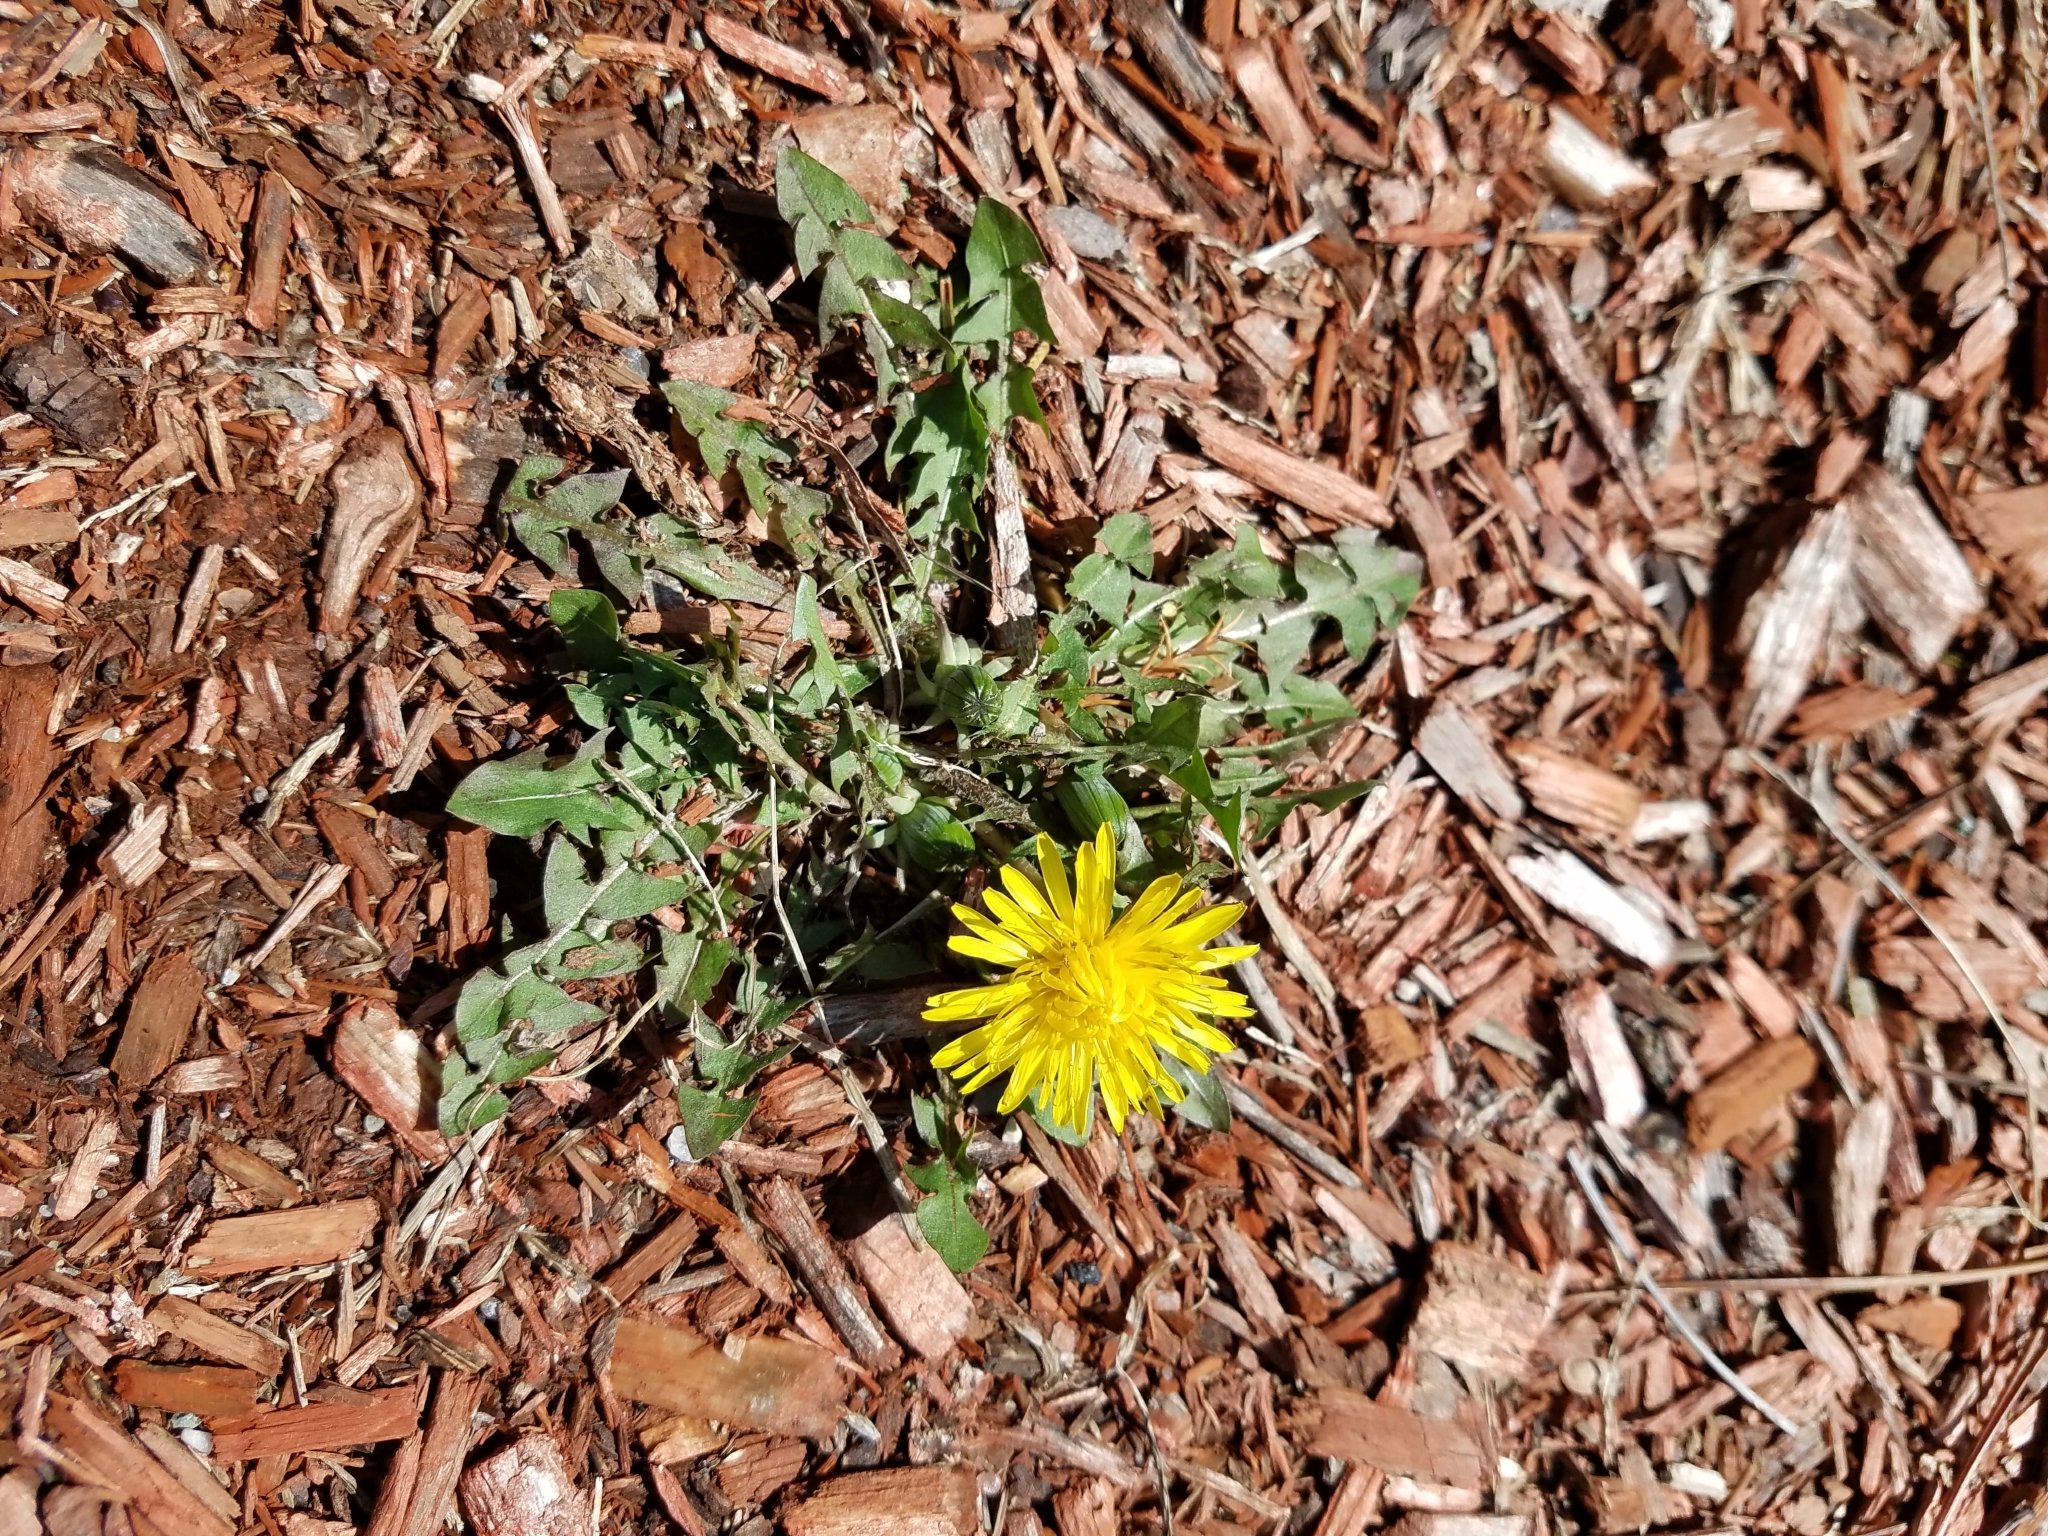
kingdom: Plantae
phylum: Tracheophyta
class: Magnoliopsida
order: Asterales
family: Asteraceae
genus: Taraxacum
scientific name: Taraxacum officinale
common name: Common dandelion
